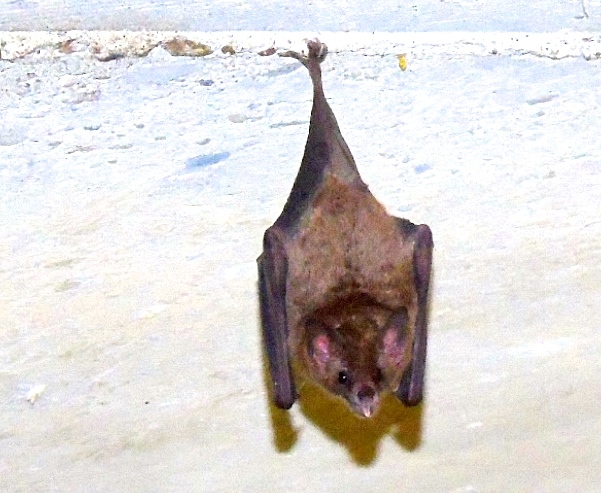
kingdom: Animalia
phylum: Chordata
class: Mammalia
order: Chiroptera
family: Phyllostomidae
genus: Glossophaga
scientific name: Glossophaga soricina
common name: Pallas's long-tongued bat
